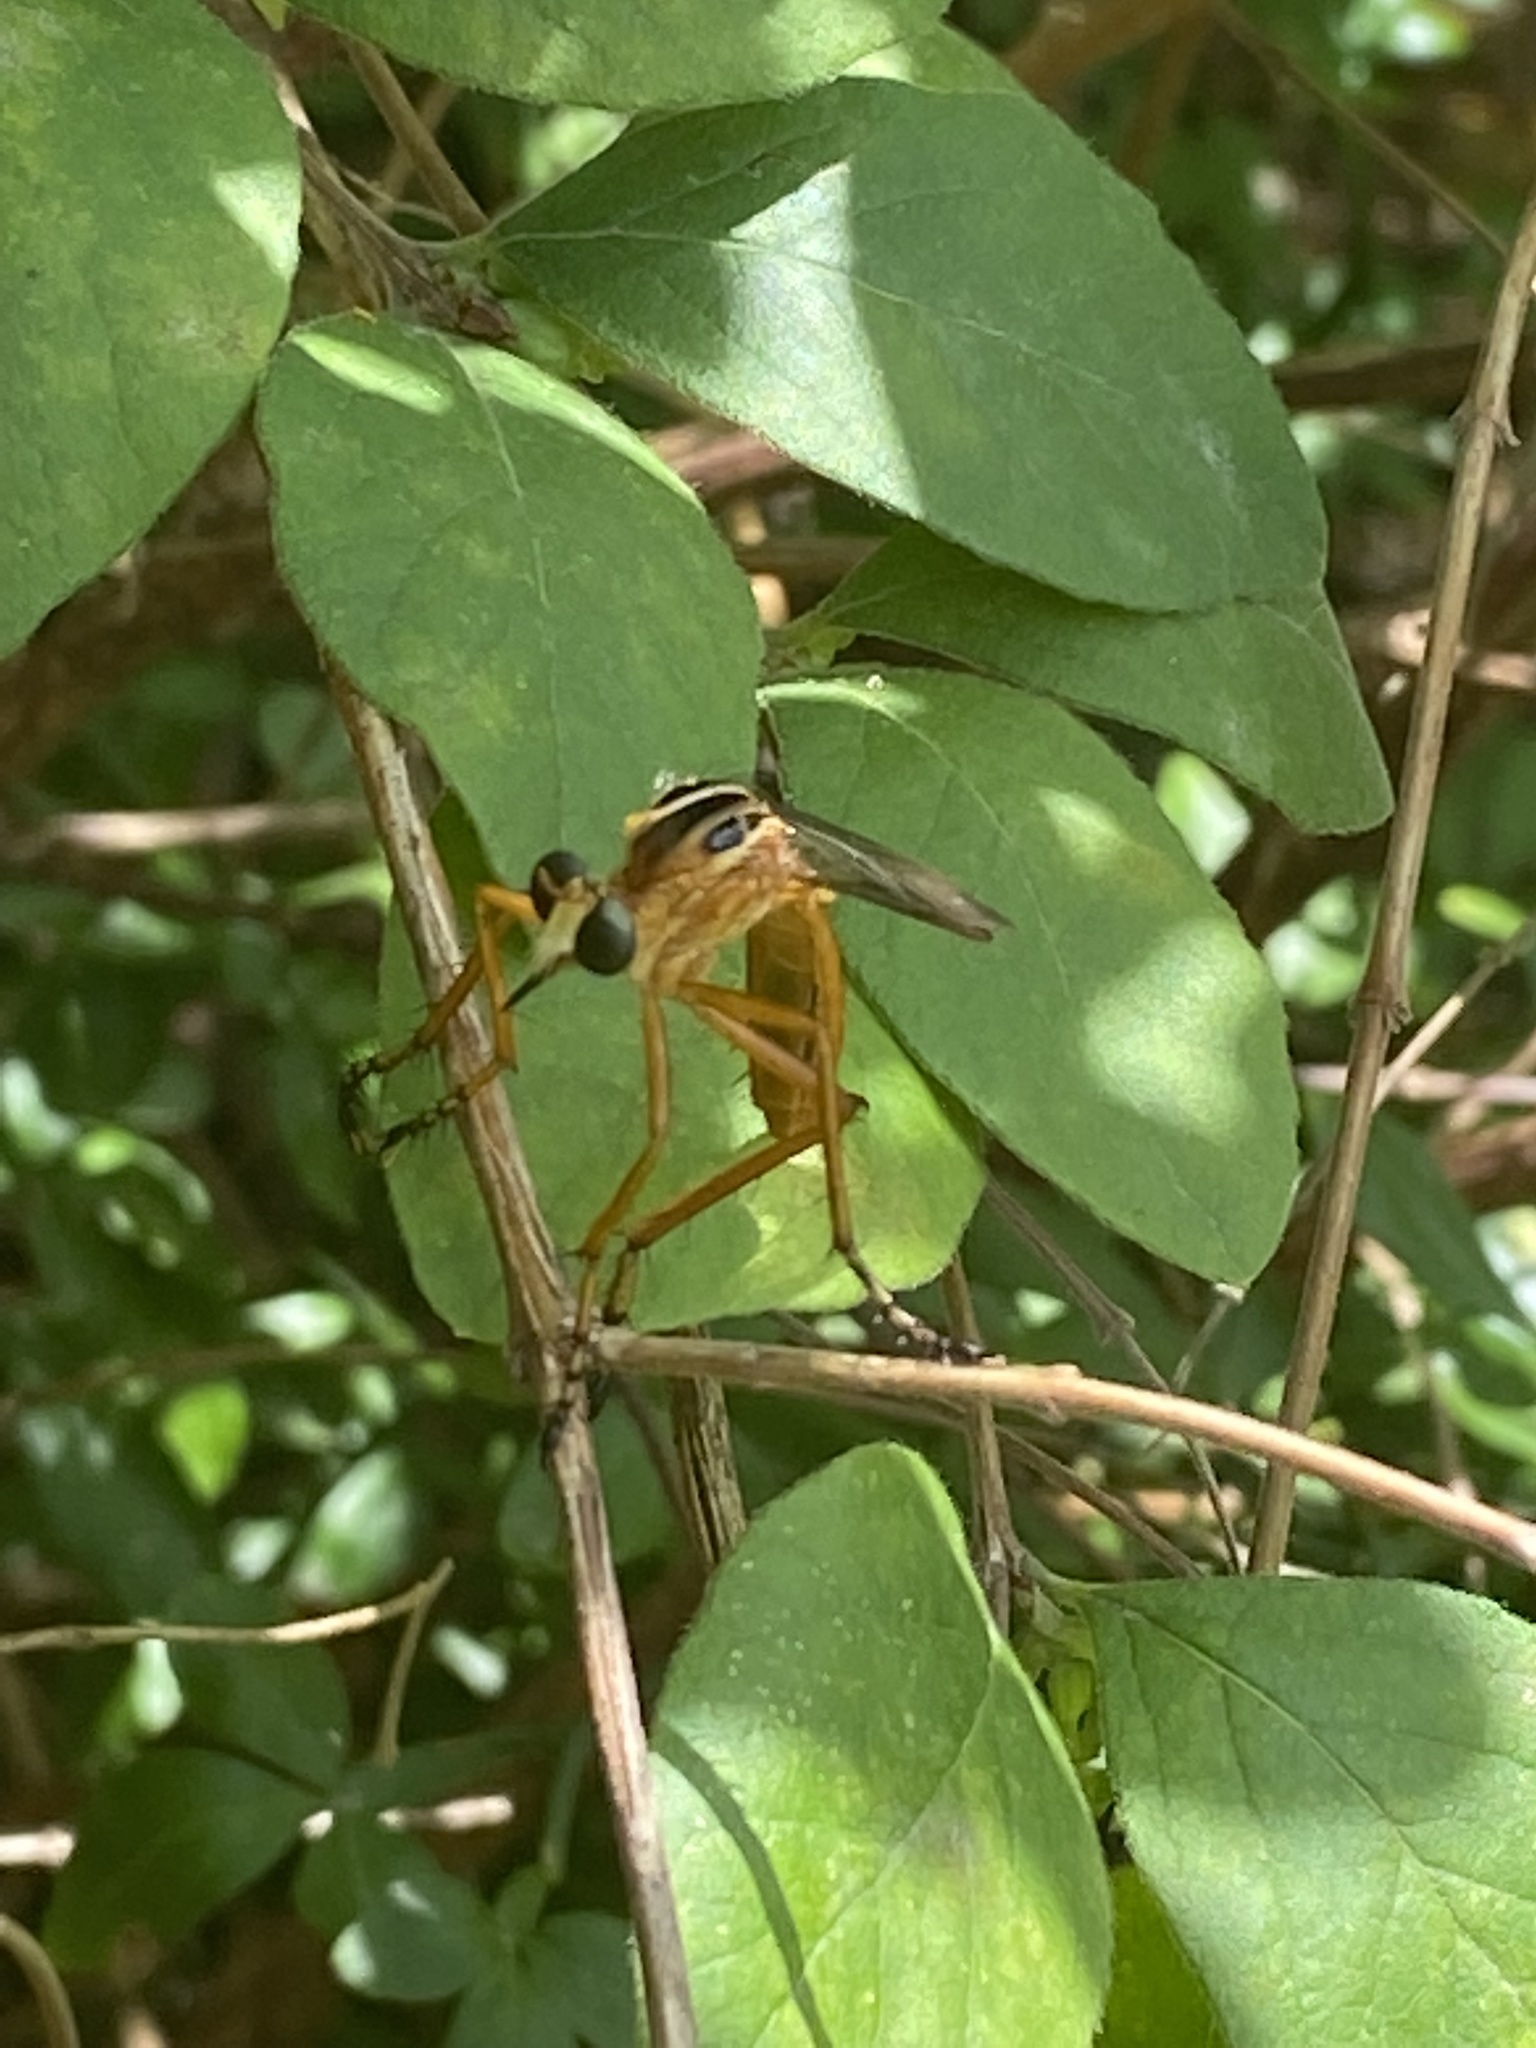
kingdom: Animalia
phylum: Arthropoda
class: Insecta
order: Diptera
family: Asilidae
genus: Diogmites
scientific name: Diogmites neoternatus
